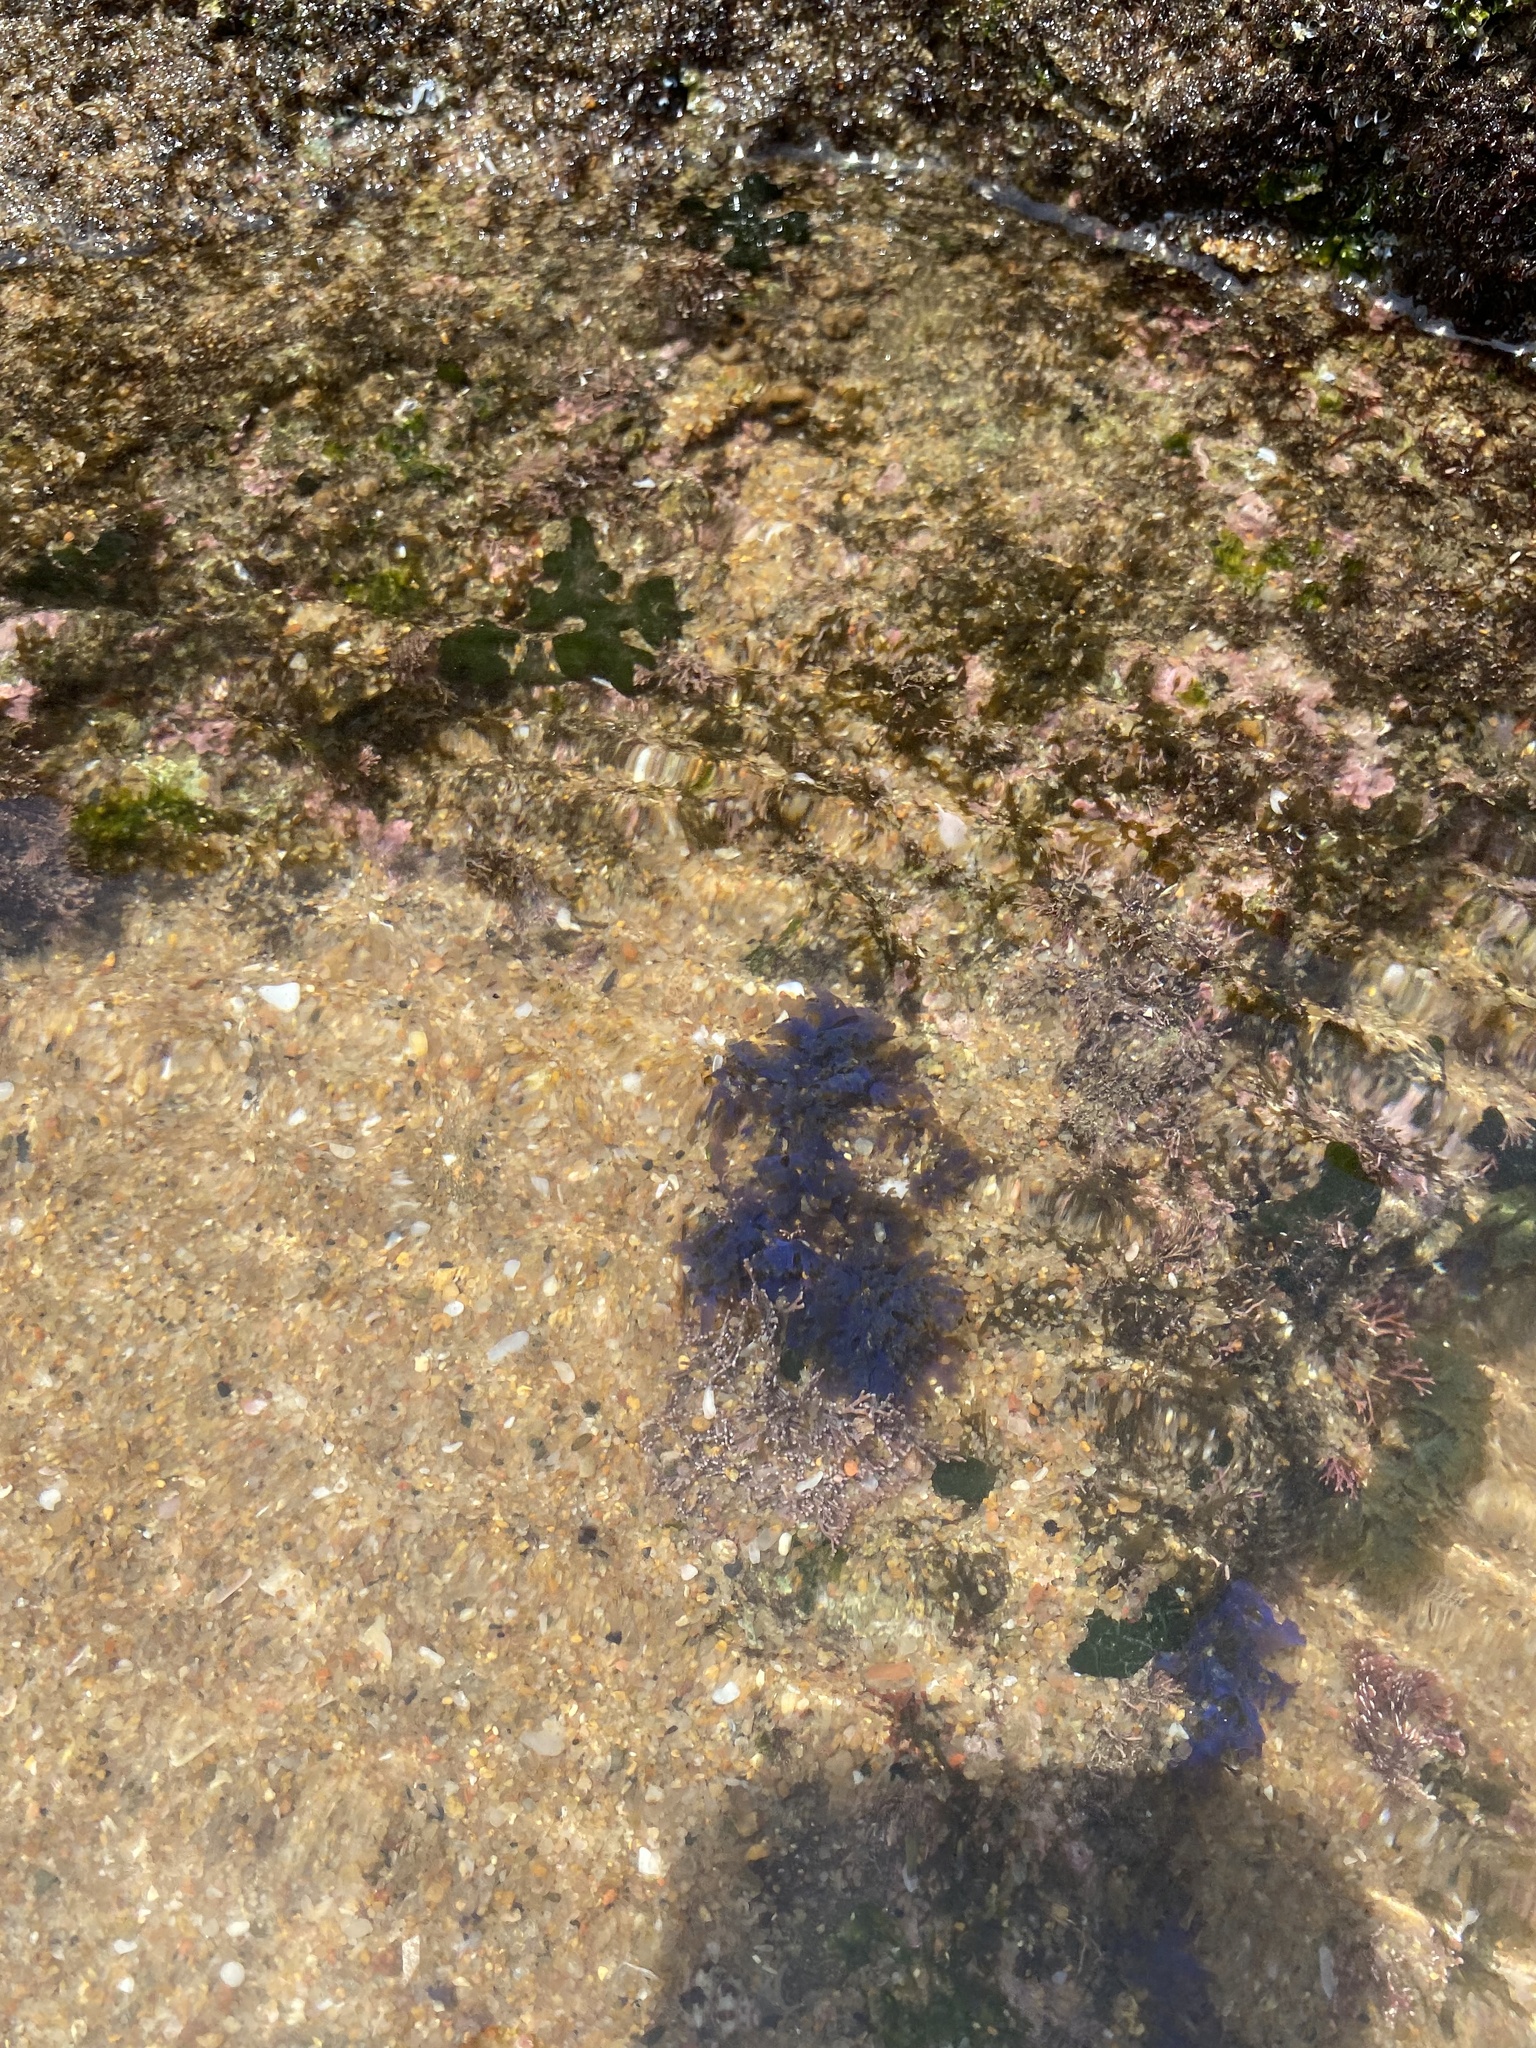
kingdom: Chromista
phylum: Ochrophyta
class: Phaeophyceae
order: Dictyotales
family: Dictyotaceae
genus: Dictyota
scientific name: Dictyota humifusa
